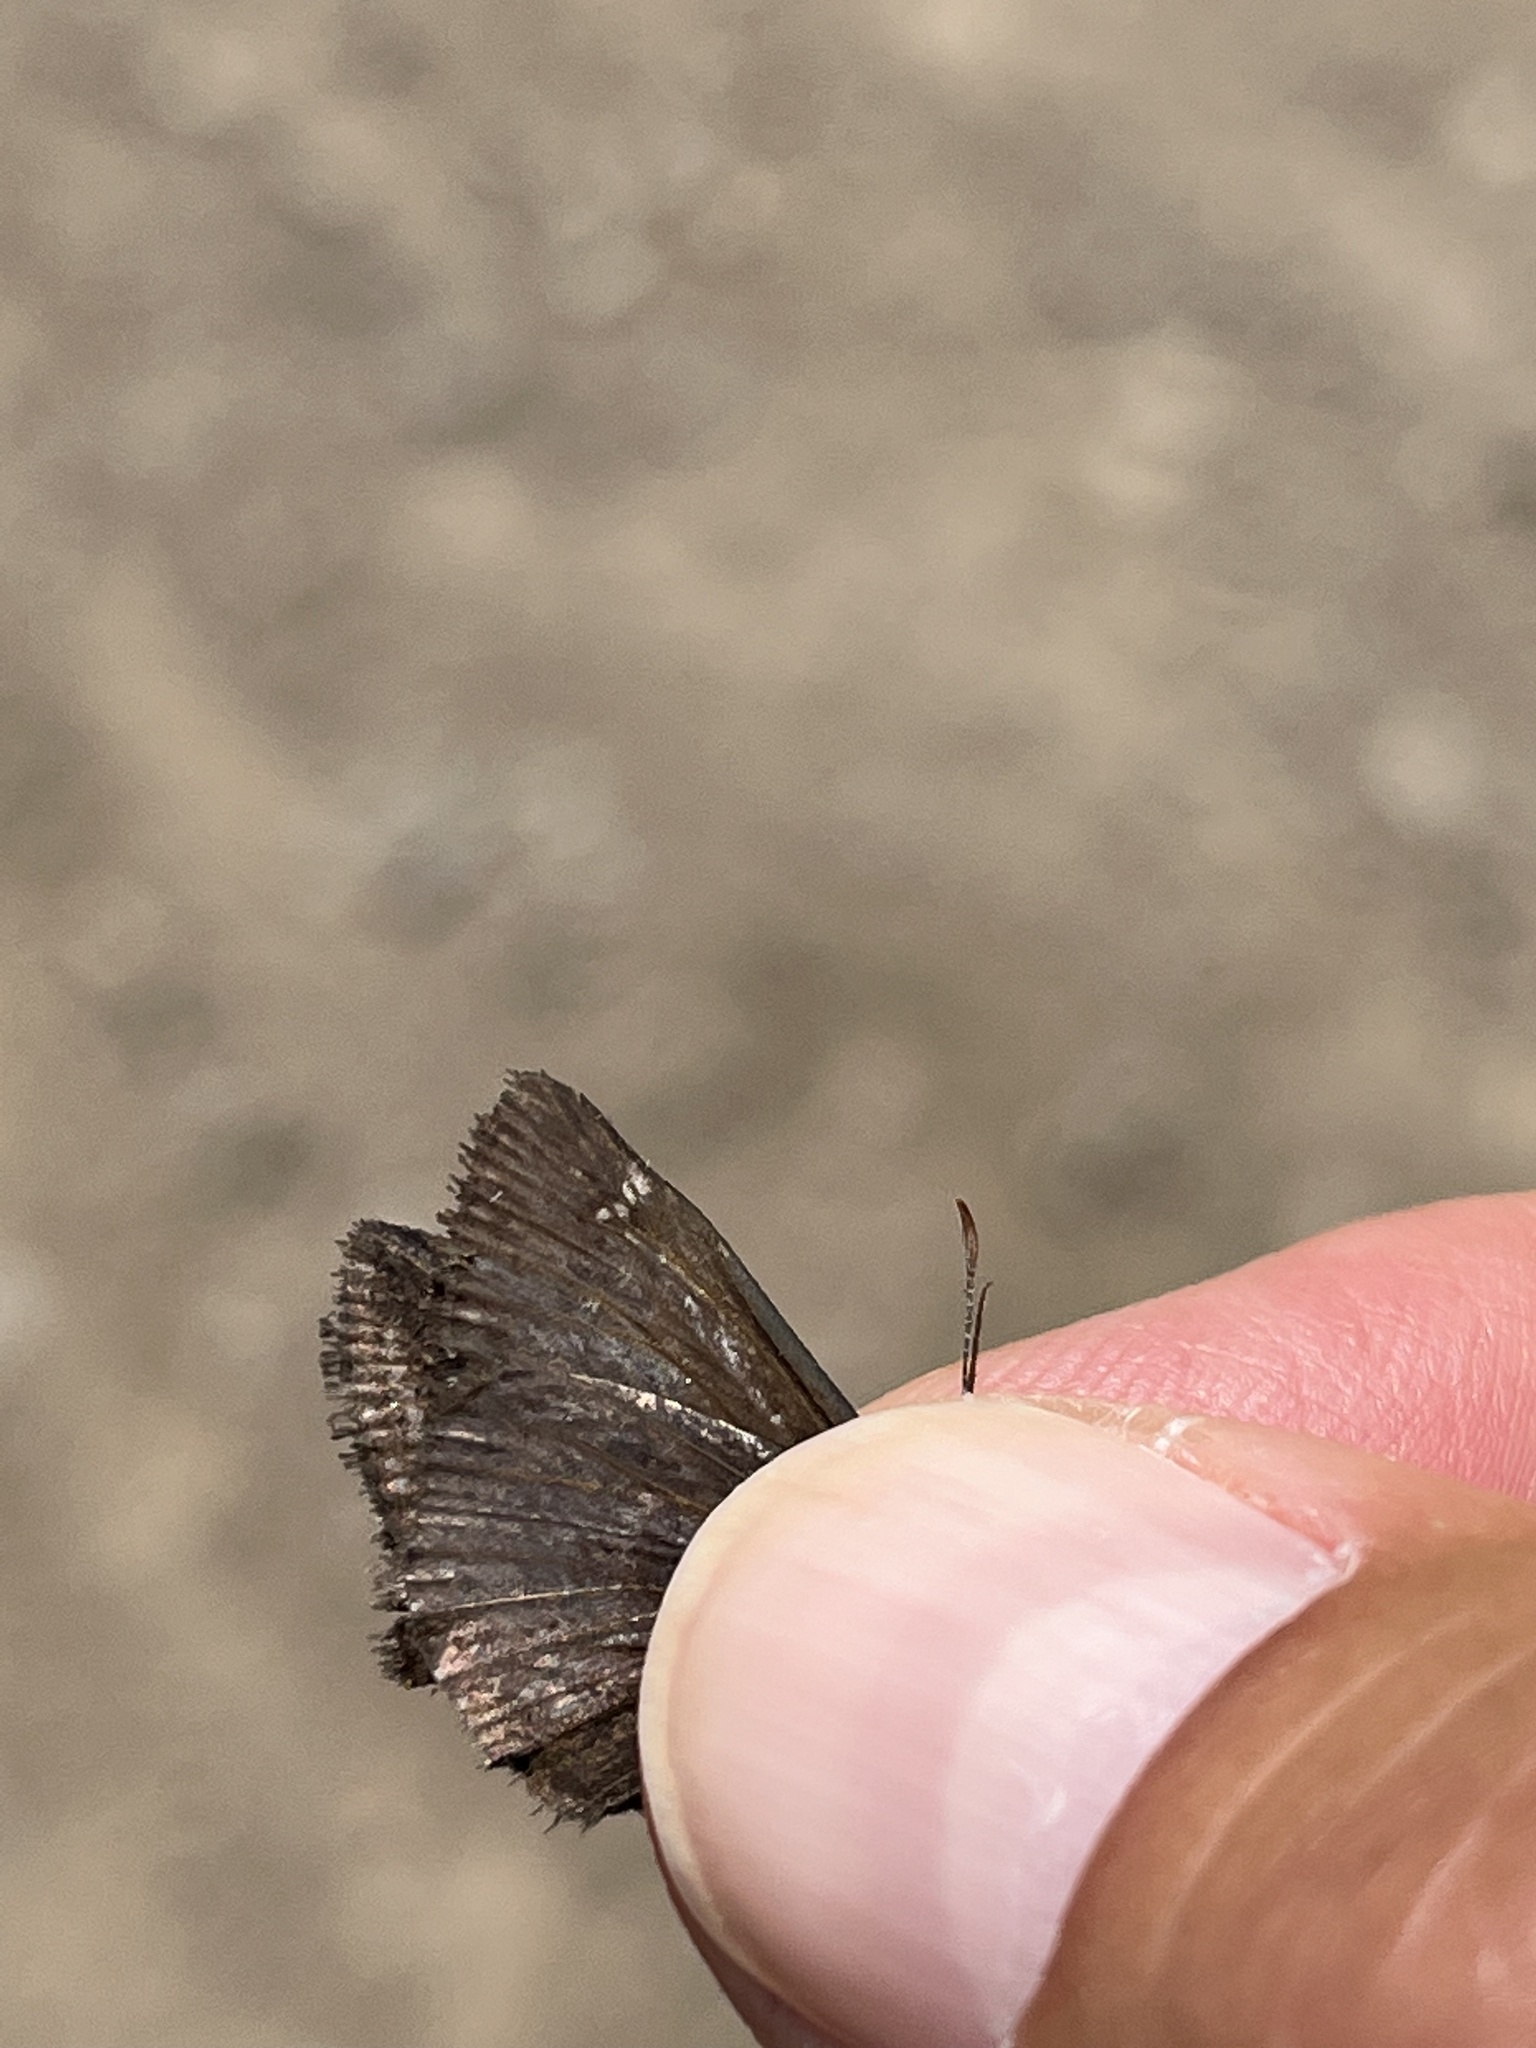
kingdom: Animalia
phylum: Arthropoda
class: Insecta
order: Lepidoptera
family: Hesperiidae
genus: Mastor
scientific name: Mastor vialis
